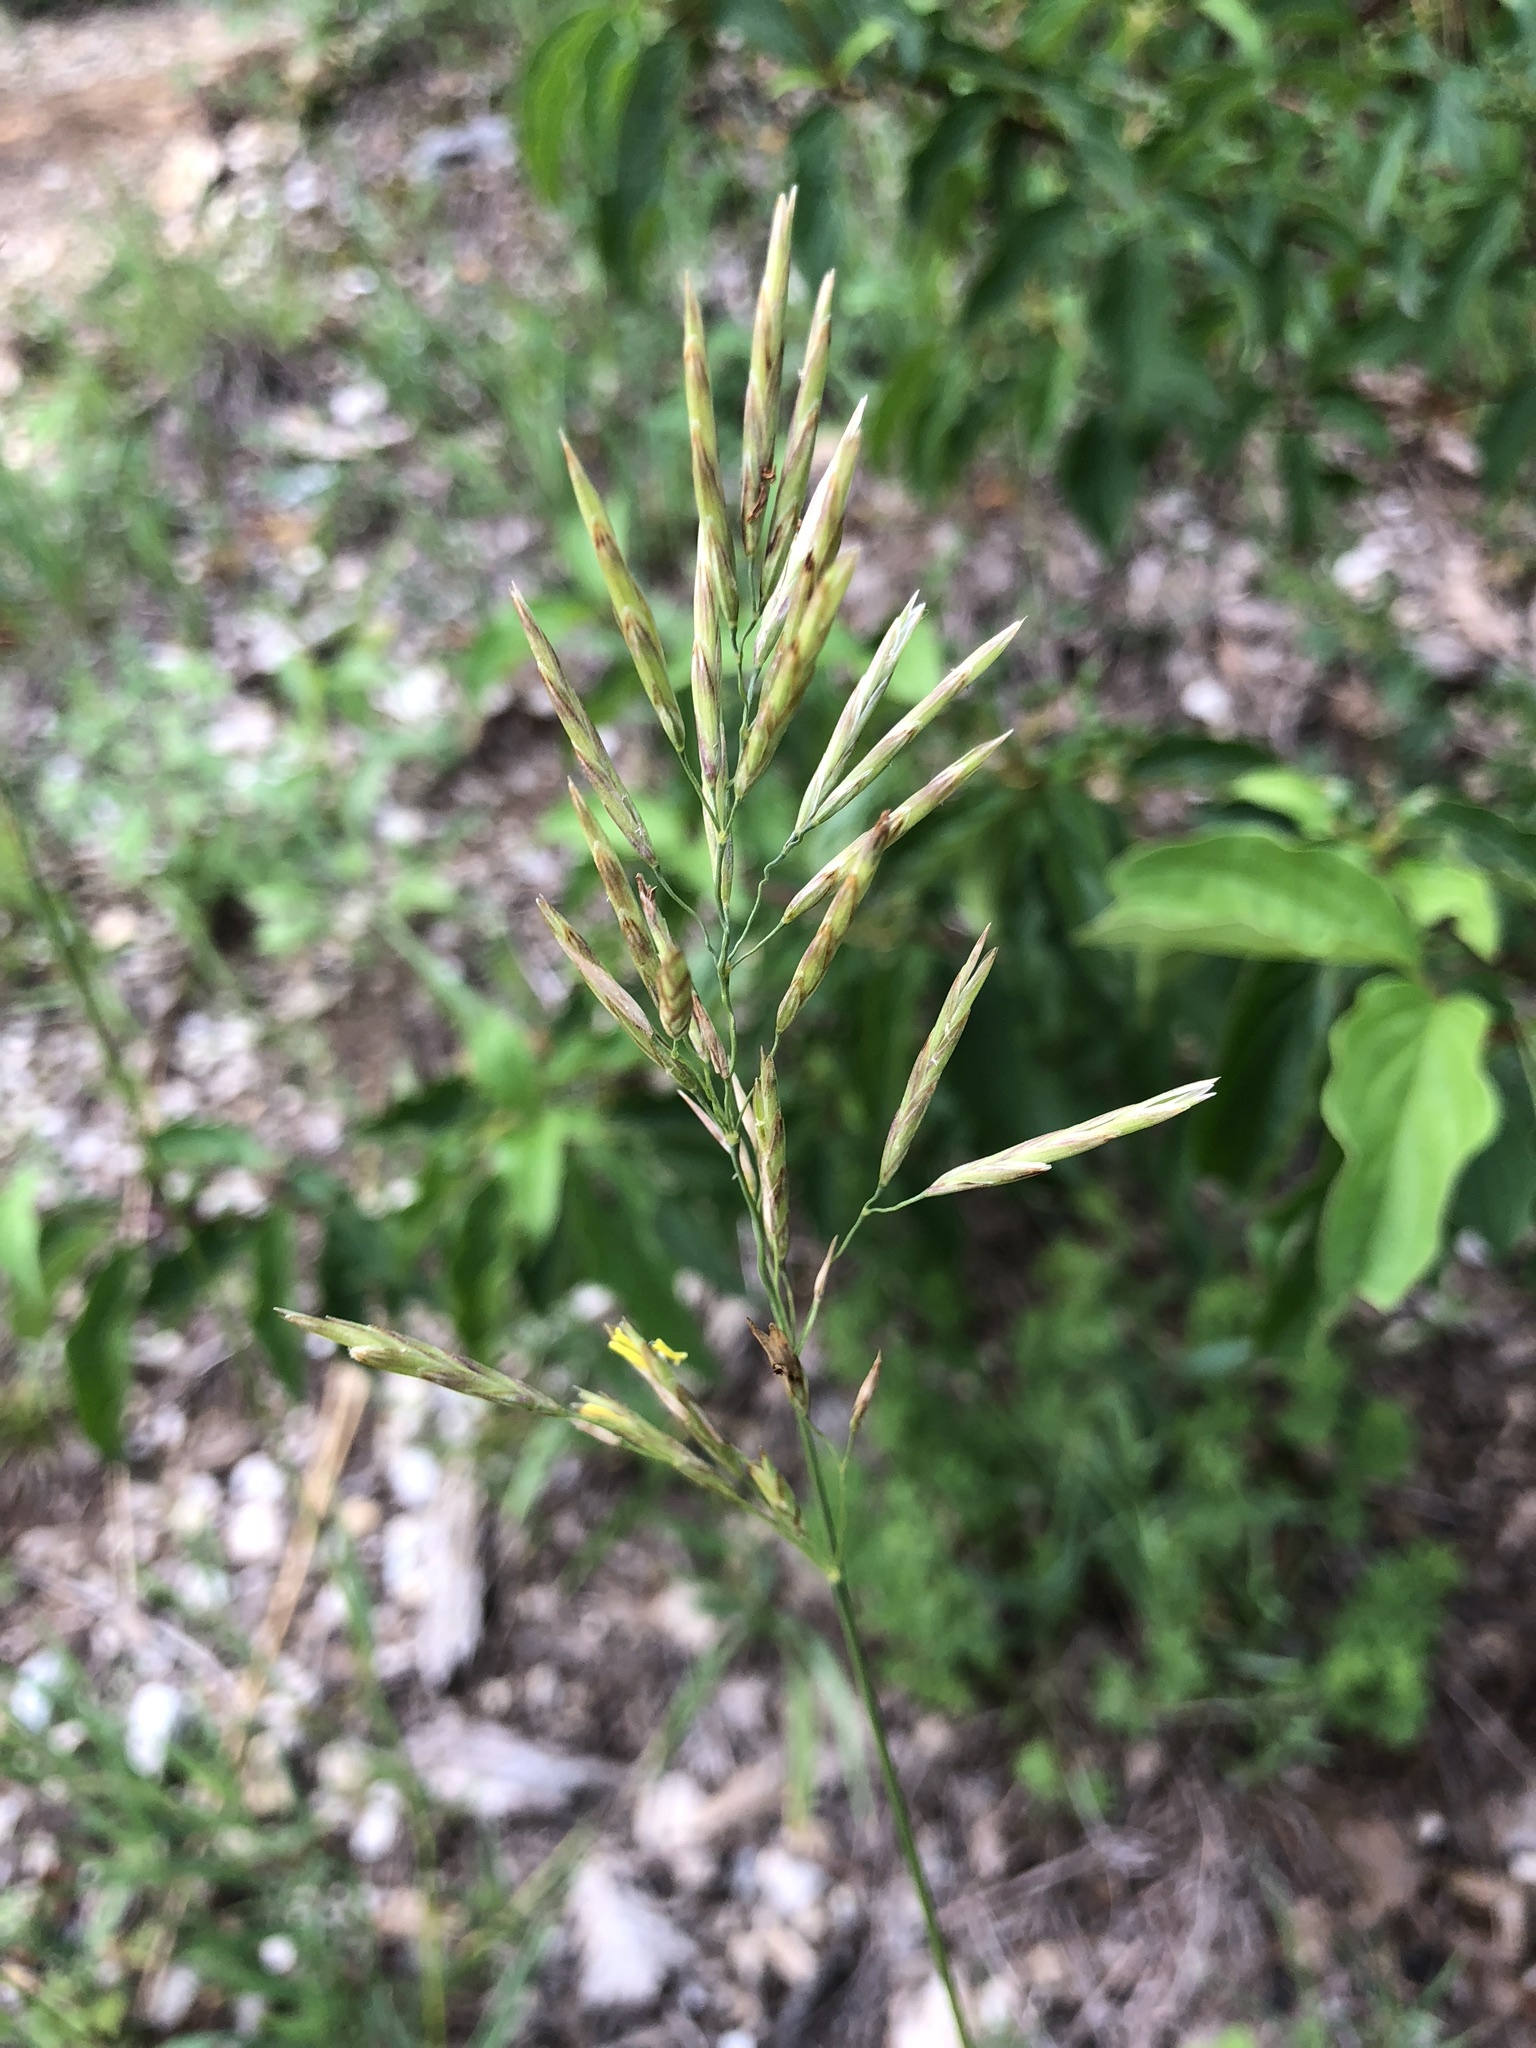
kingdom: Plantae
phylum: Tracheophyta
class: Liliopsida
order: Poales
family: Poaceae
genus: Bromus
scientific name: Bromus inermis
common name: Smooth brome
